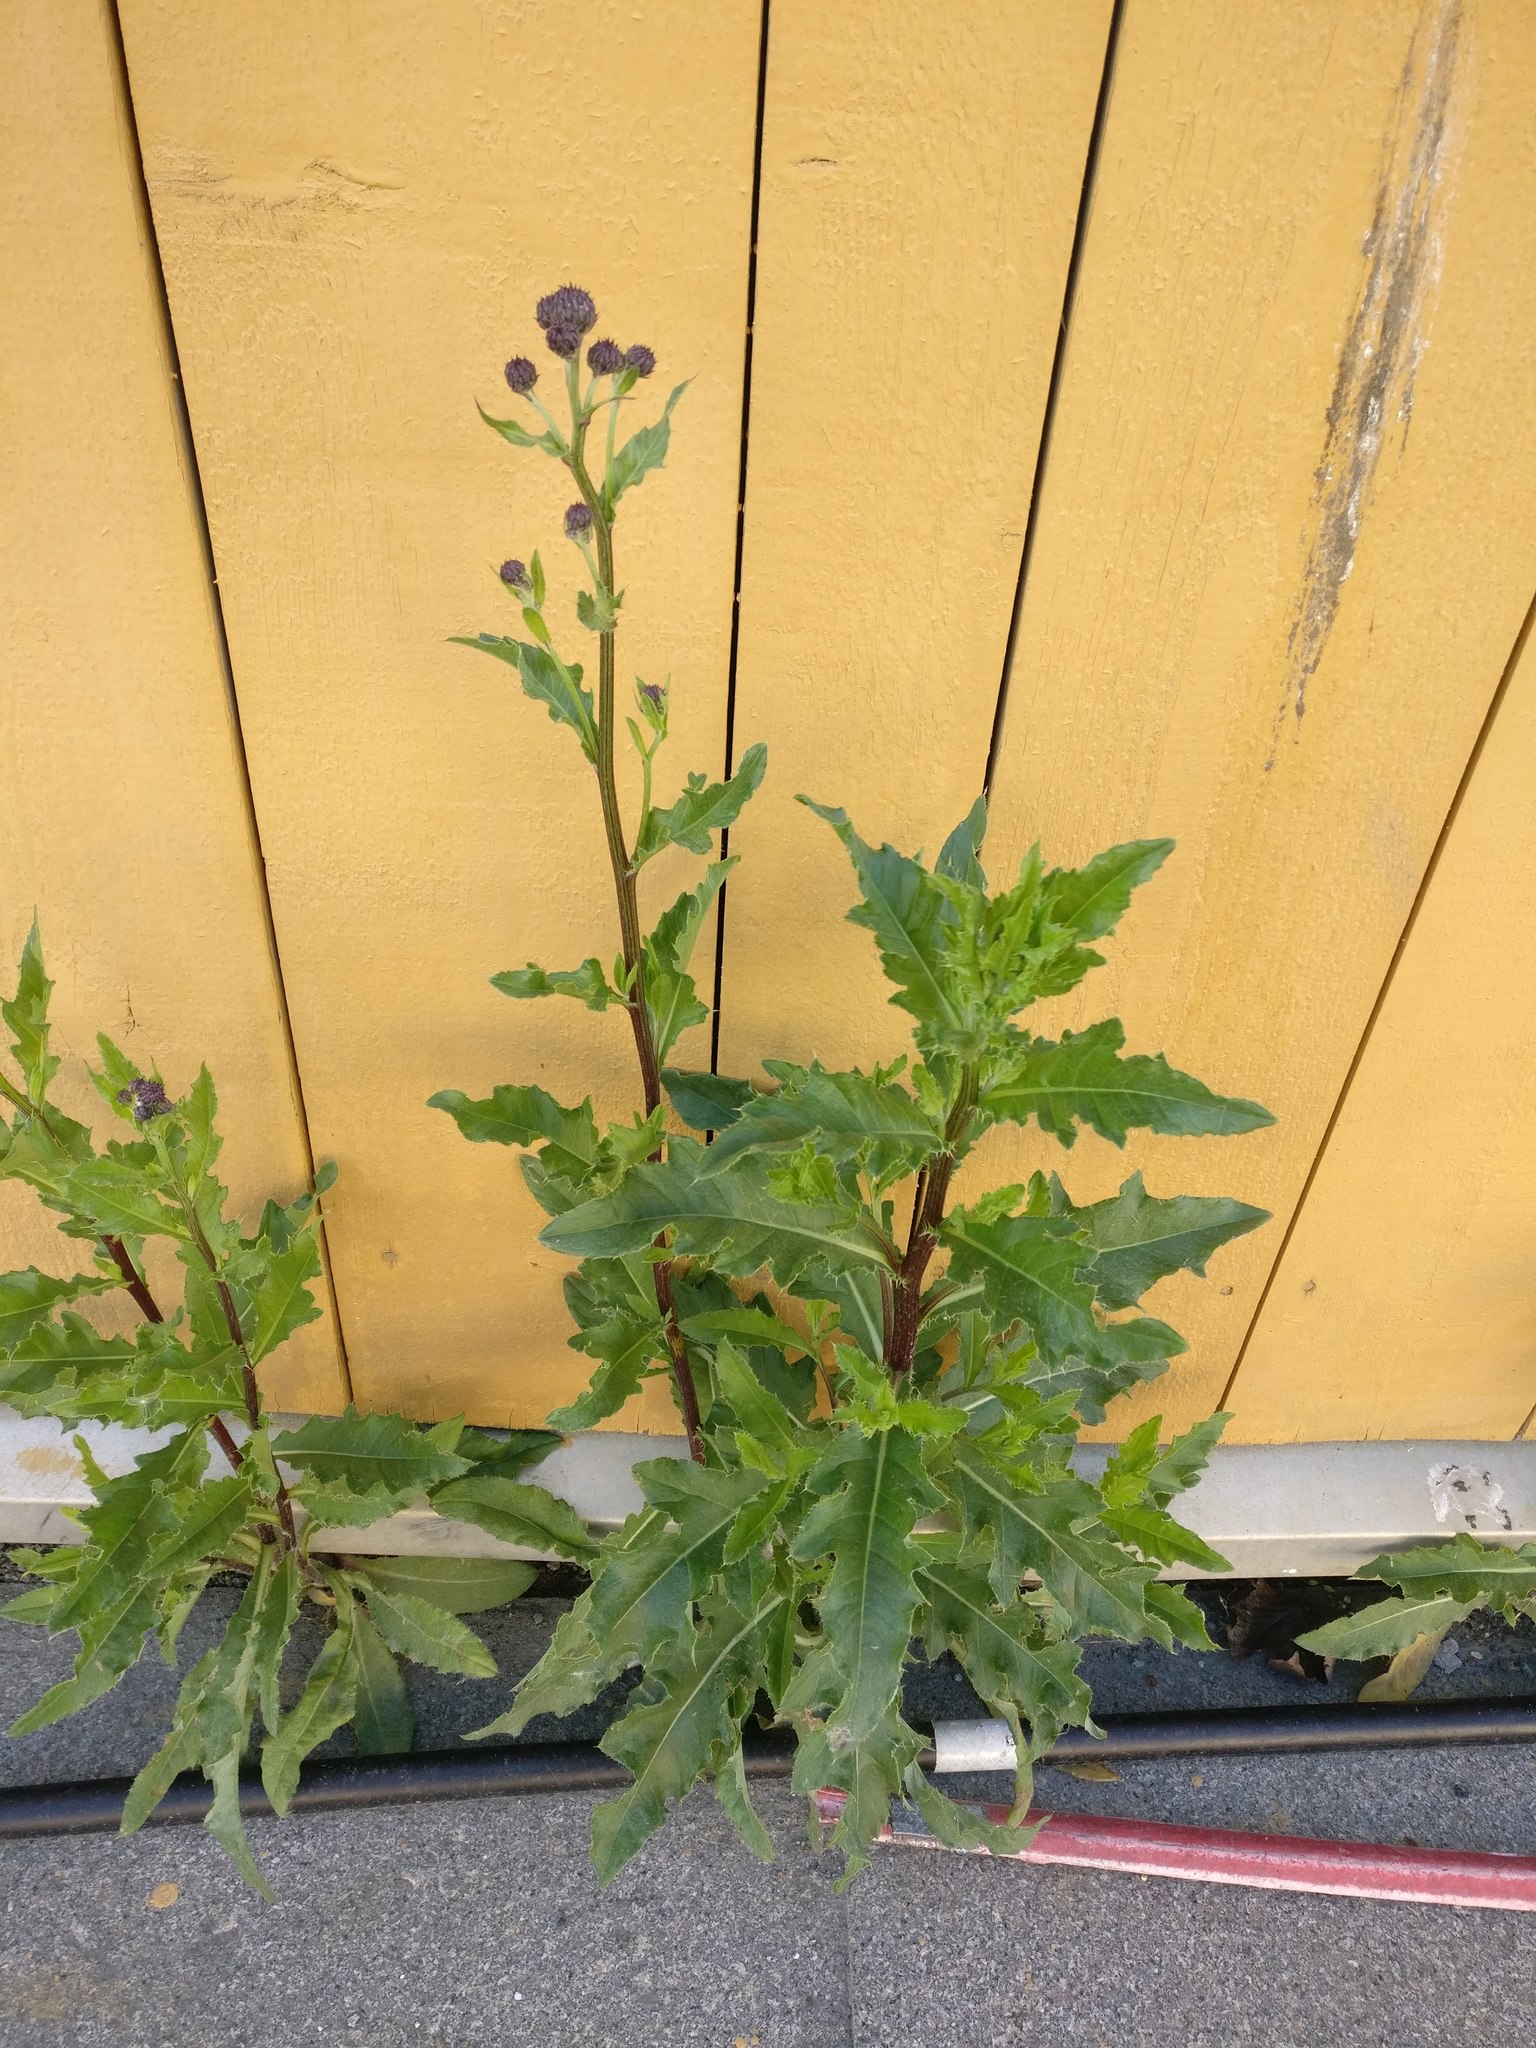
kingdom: Plantae
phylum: Tracheophyta
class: Magnoliopsida
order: Asterales
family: Asteraceae
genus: Cirsium
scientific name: Cirsium arvense
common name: Creeping thistle
